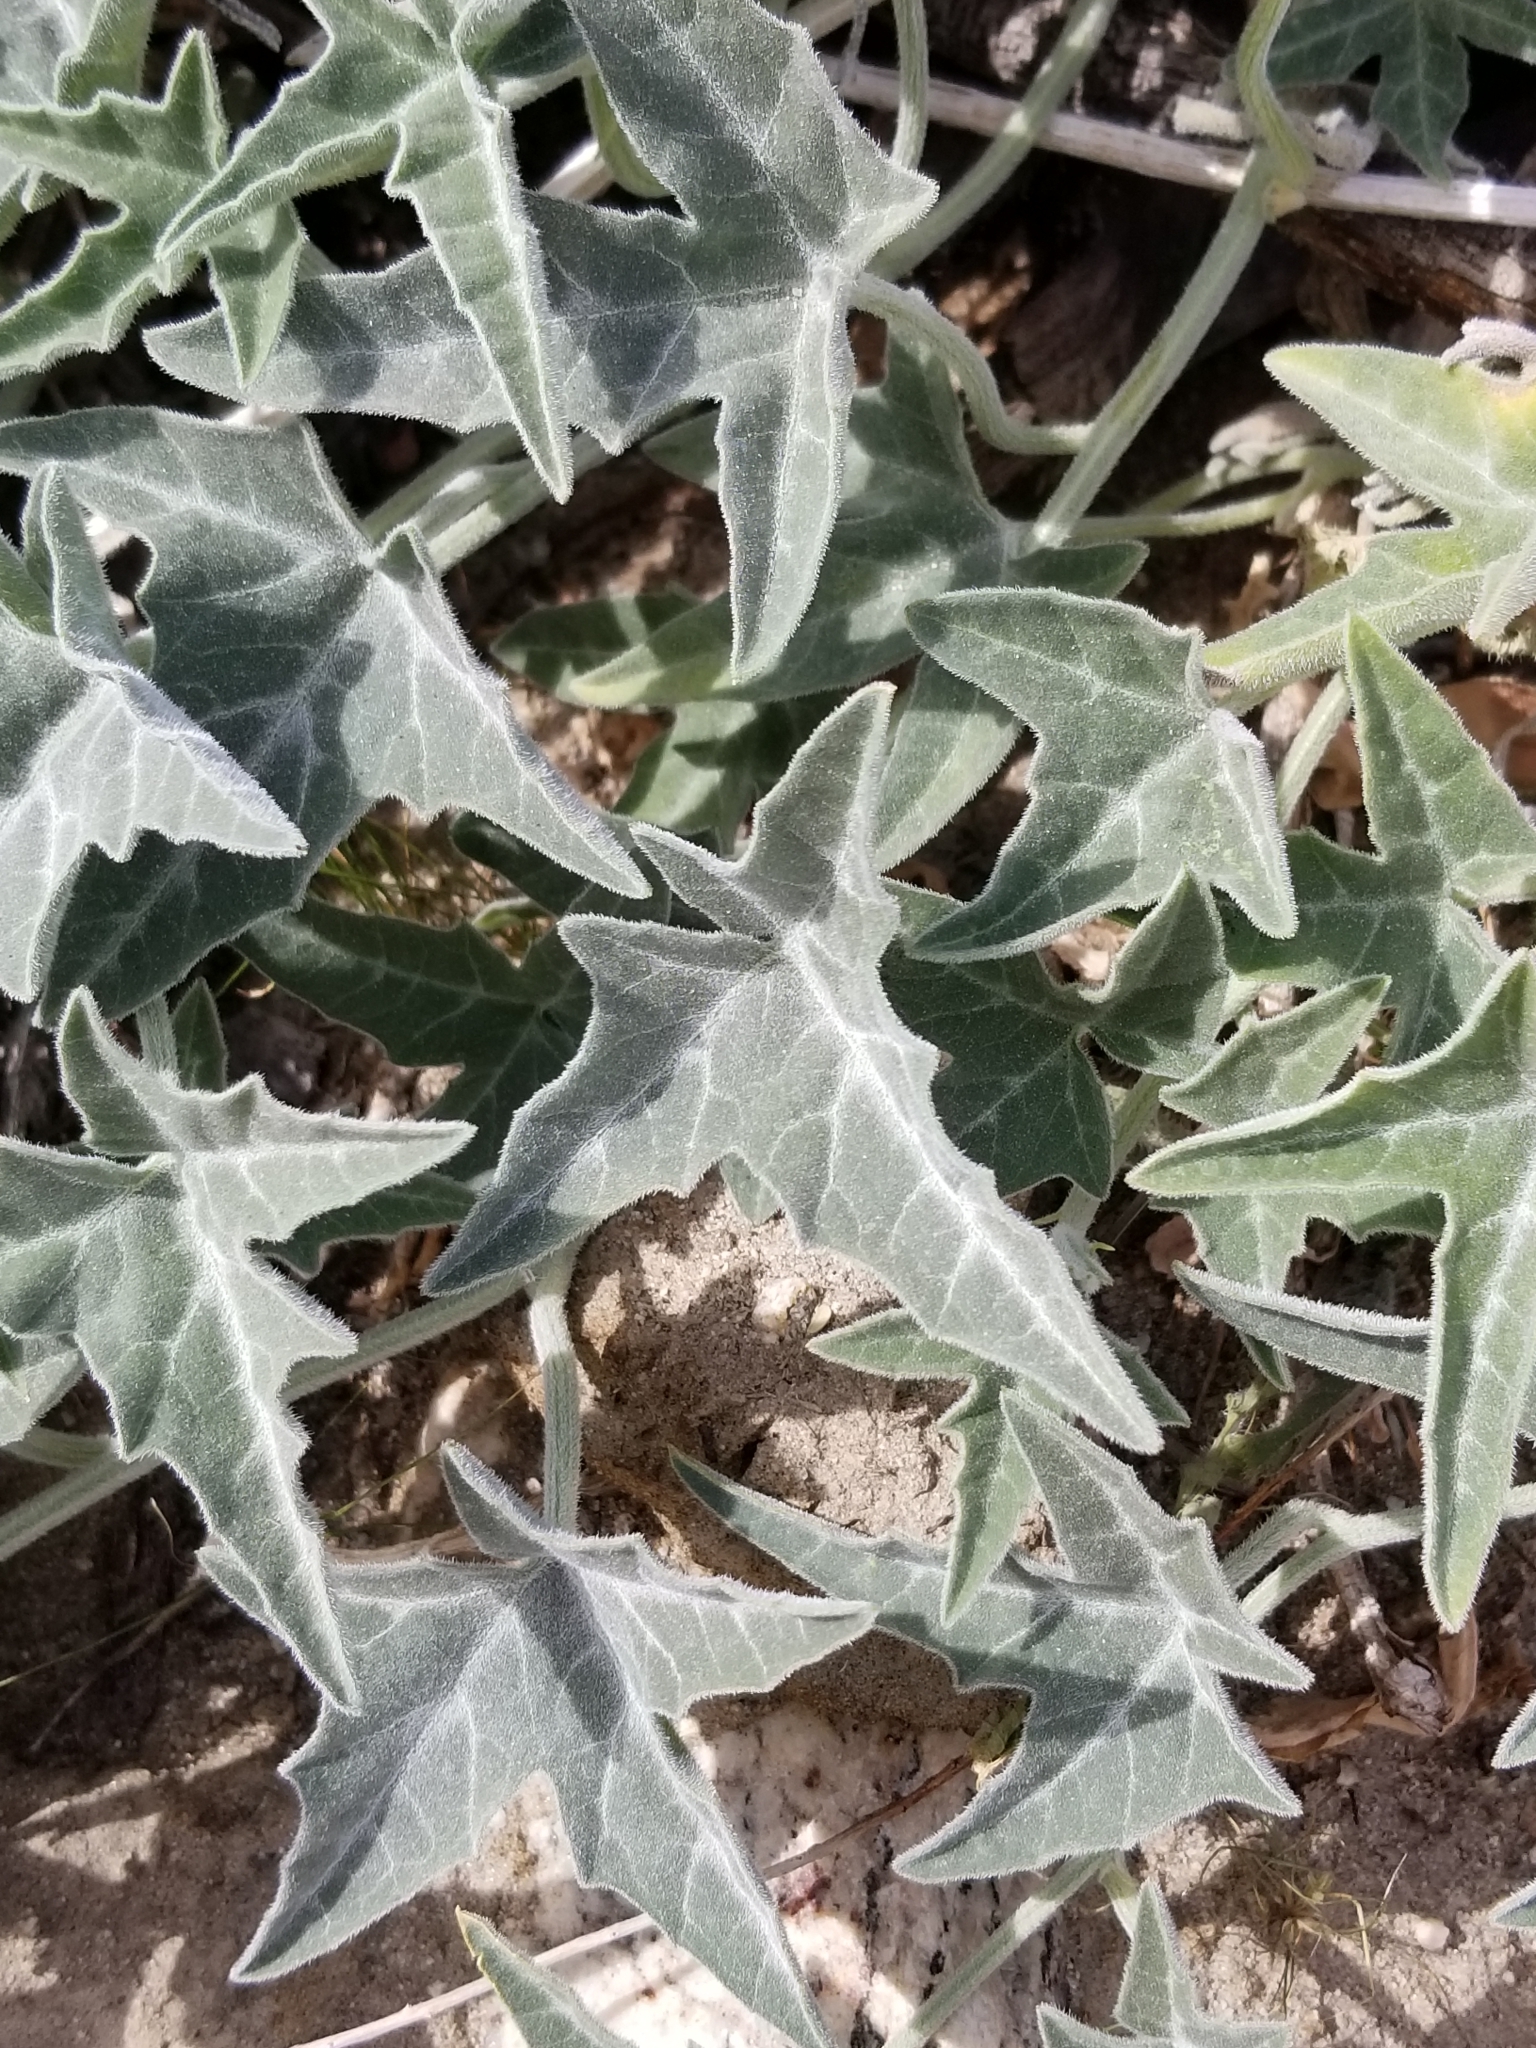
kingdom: Plantae
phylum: Tracheophyta
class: Magnoliopsida
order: Cucurbitales
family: Cucurbitaceae
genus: Cucurbita
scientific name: Cucurbita palmata
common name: Coyote-melon
